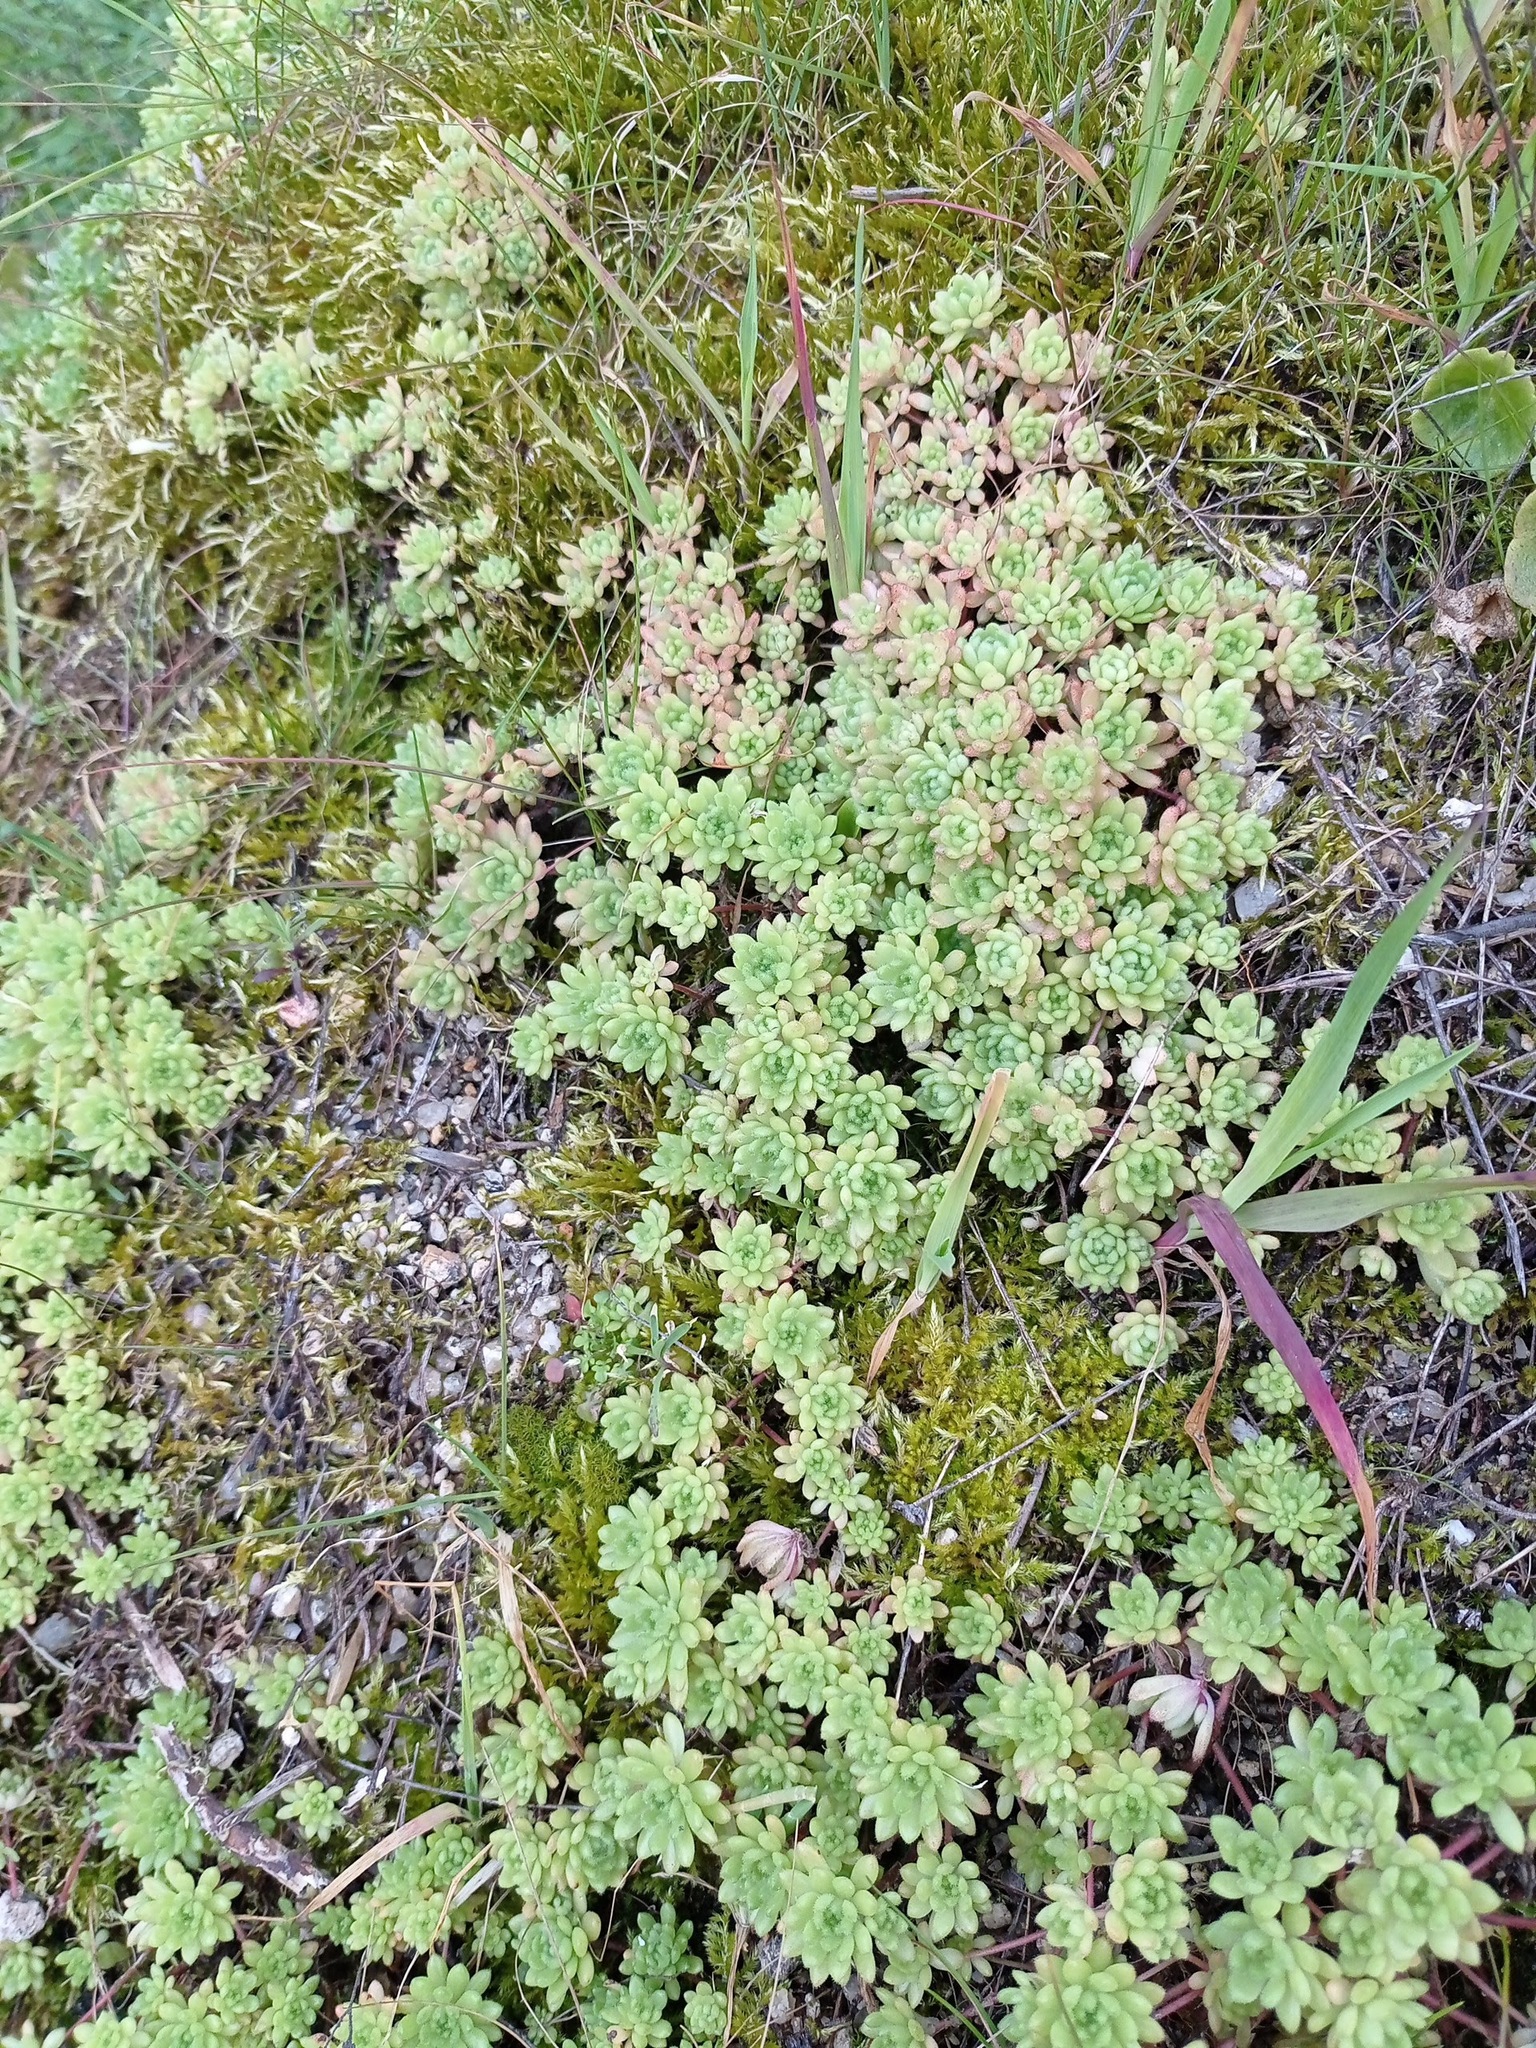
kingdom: Plantae
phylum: Tracheophyta
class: Magnoliopsida
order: Saxifragales
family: Crassulaceae
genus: Sedum
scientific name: Sedum hirsutum
